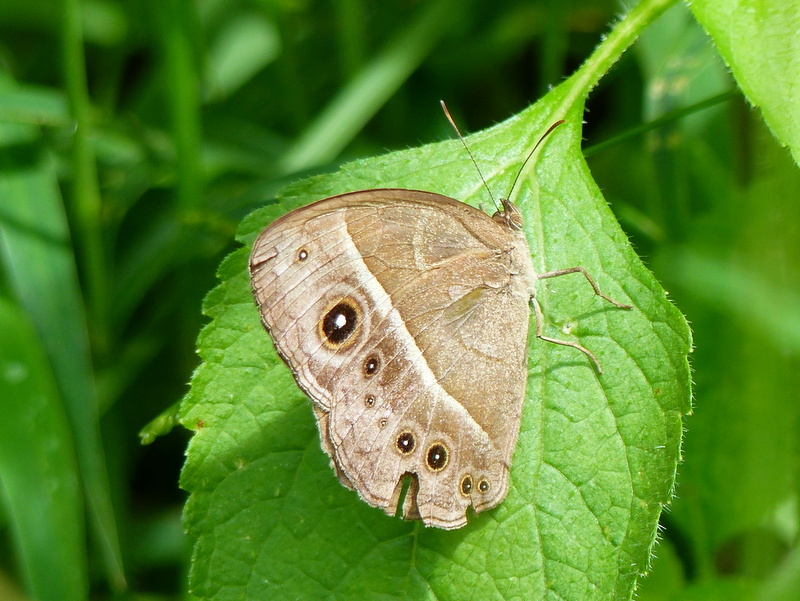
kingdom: Animalia
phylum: Arthropoda
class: Insecta
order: Lepidoptera
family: Nymphalidae
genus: Mycalesis
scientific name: Mycalesis rhacotis
